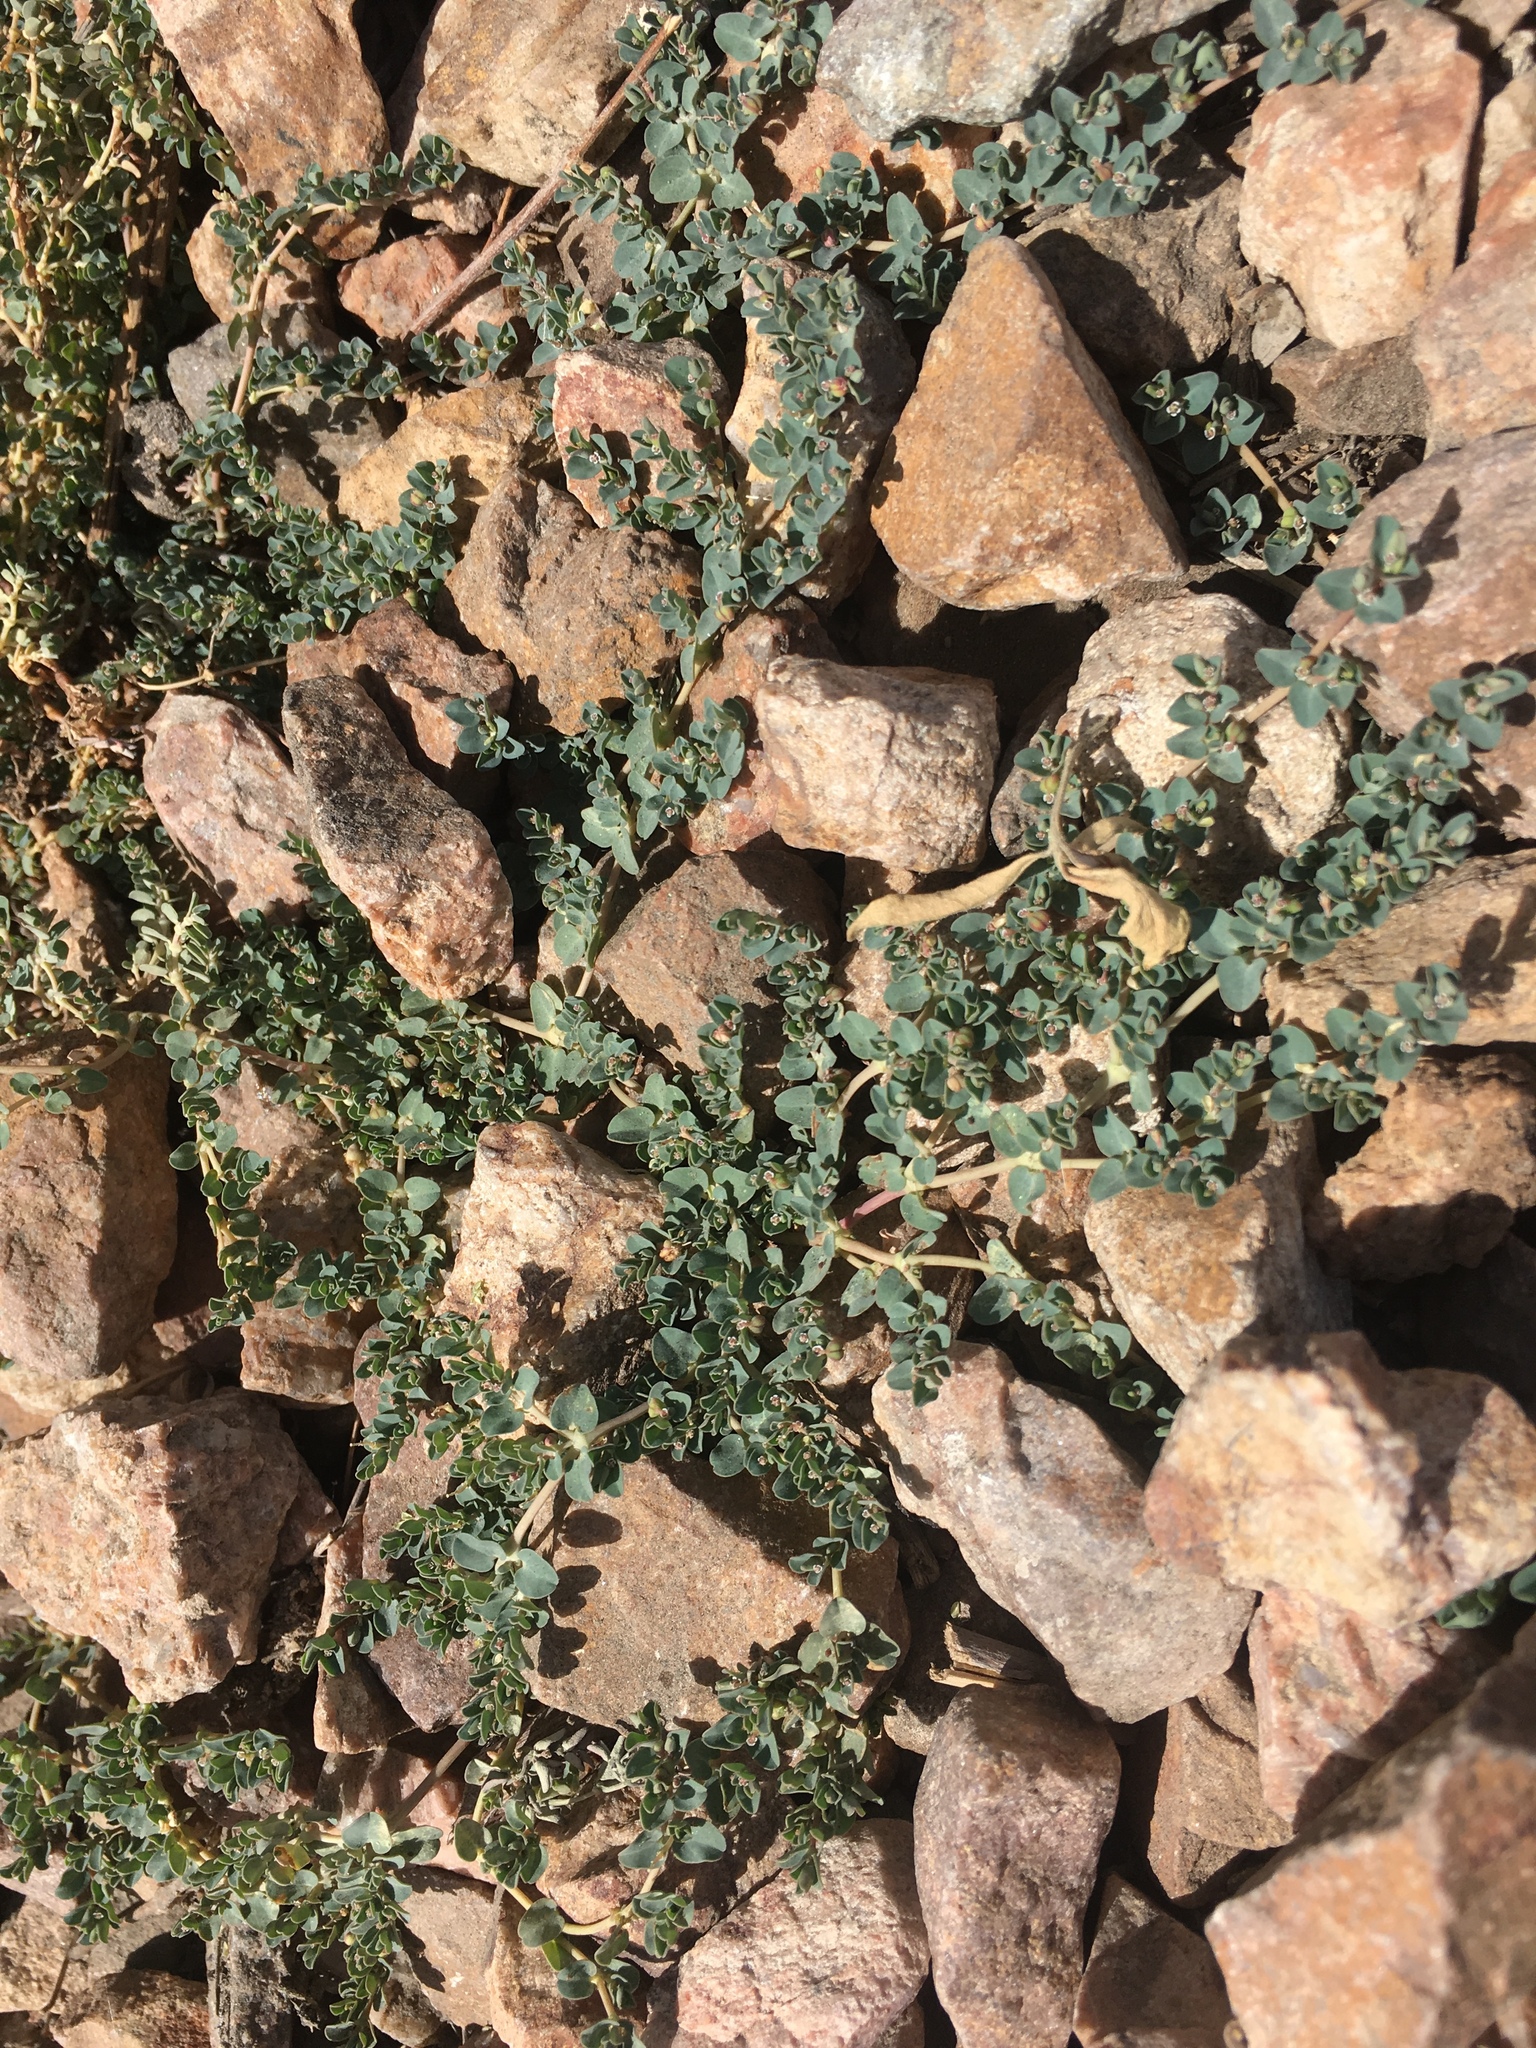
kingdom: Plantae
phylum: Tracheophyta
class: Magnoliopsida
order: Malpighiales
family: Euphorbiaceae
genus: Euphorbia
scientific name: Euphorbia serpens
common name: Matted sandmat
